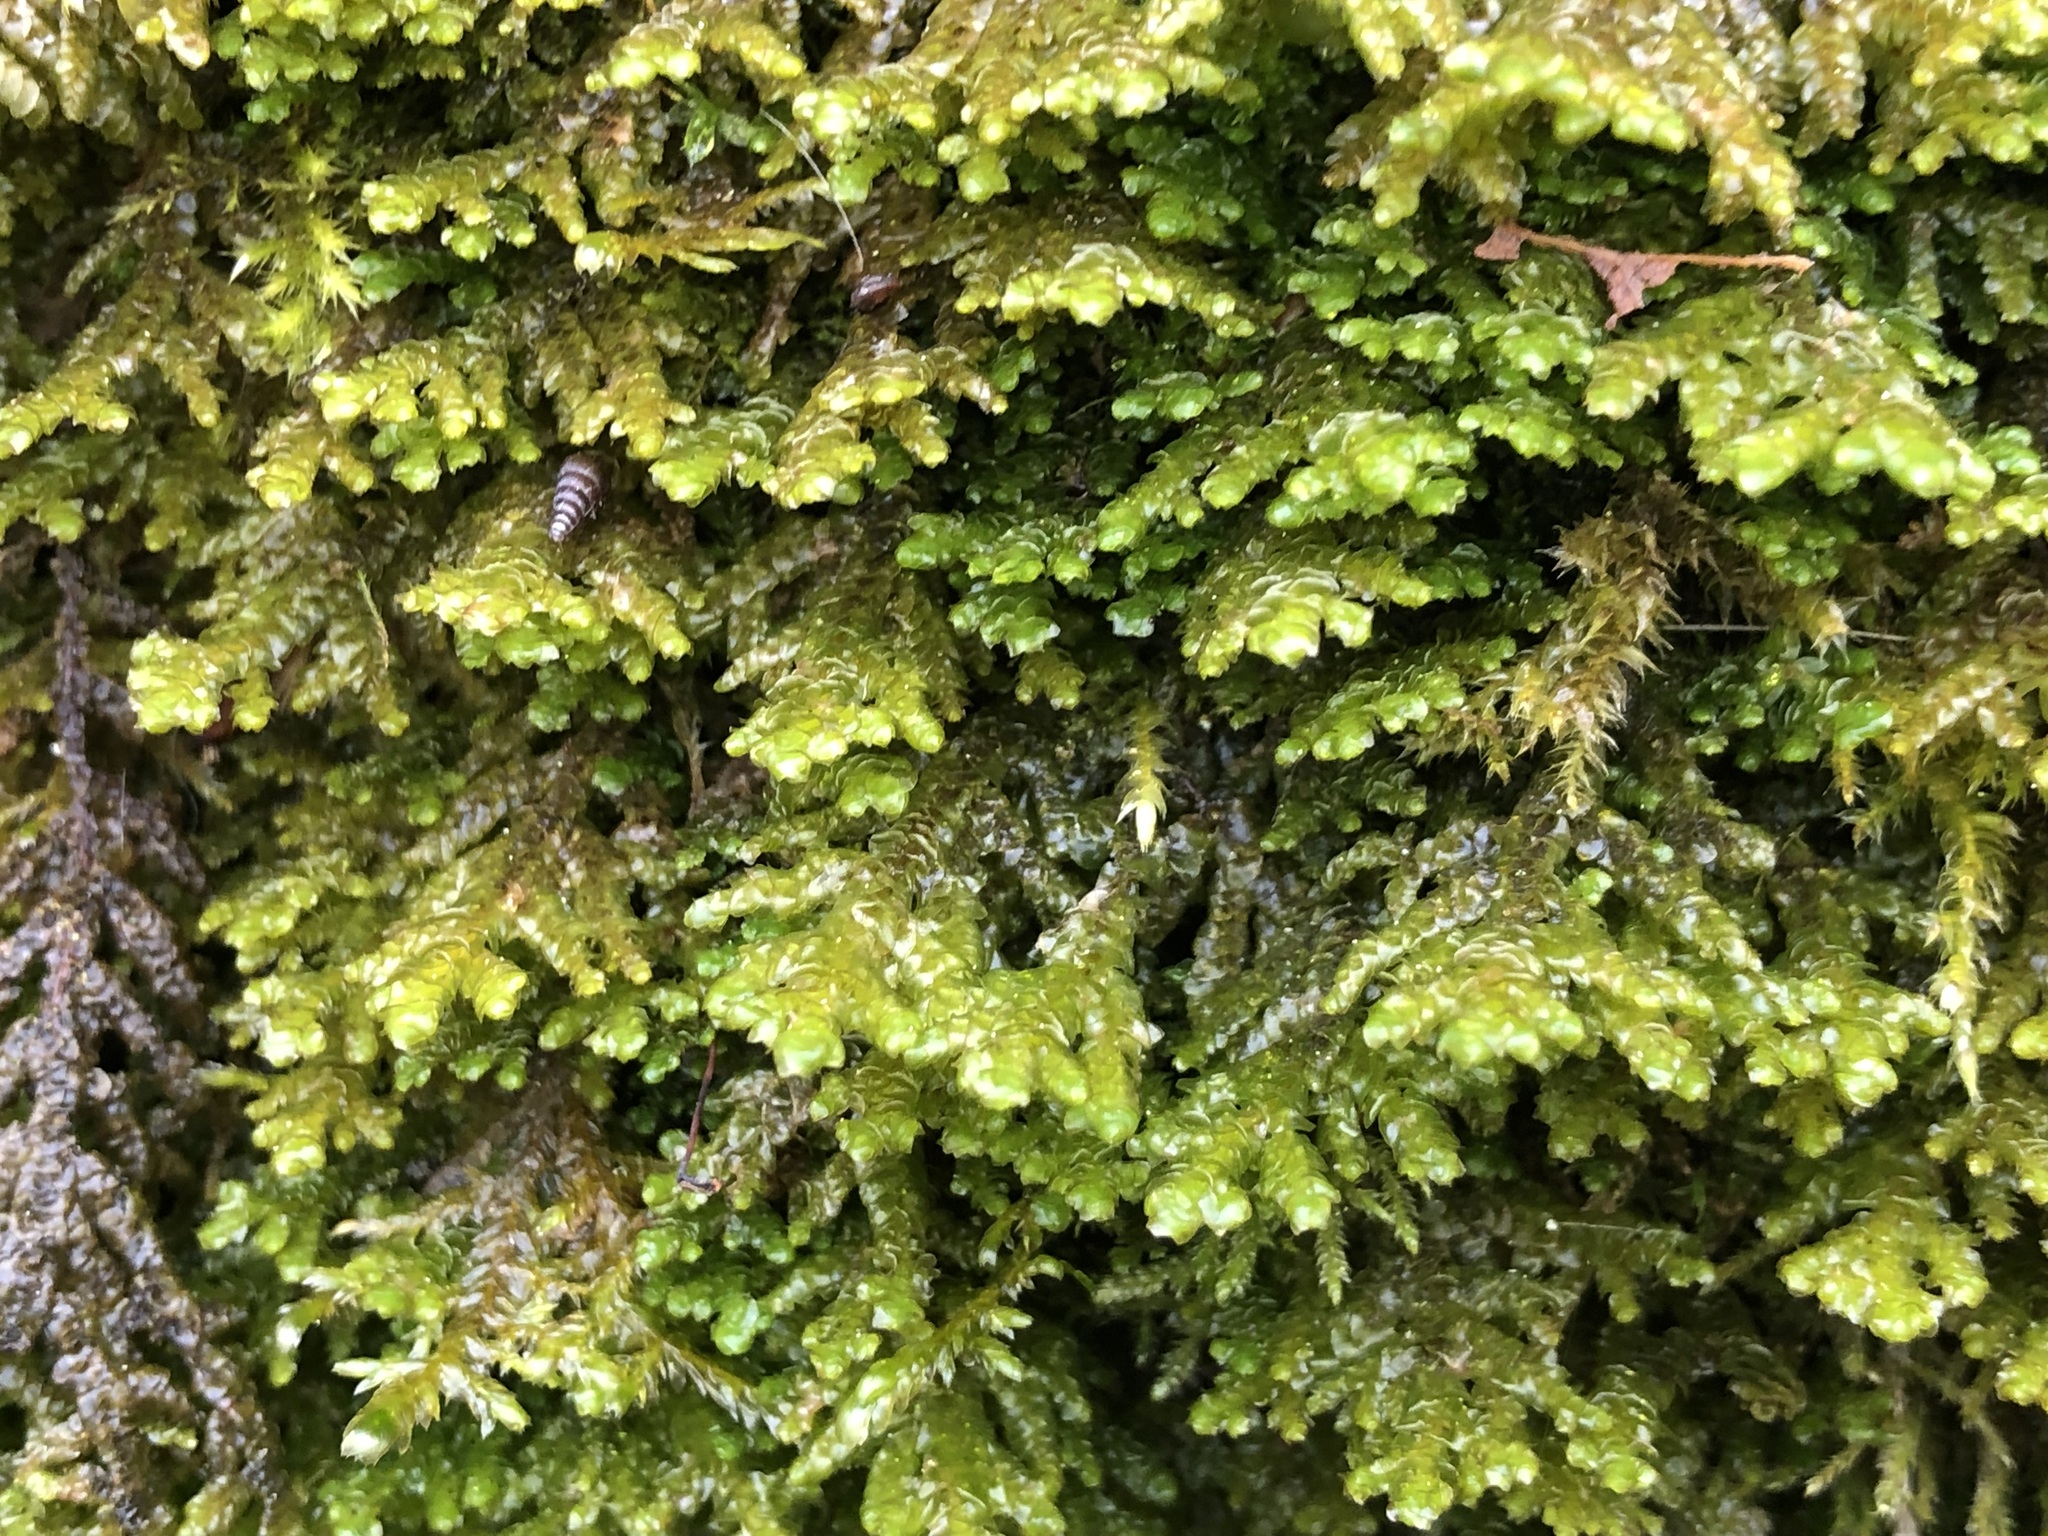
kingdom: Plantae
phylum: Marchantiophyta
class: Jungermanniopsida
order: Porellales
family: Porellaceae
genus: Porella
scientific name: Porella platyphylla
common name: Wall scalewort
